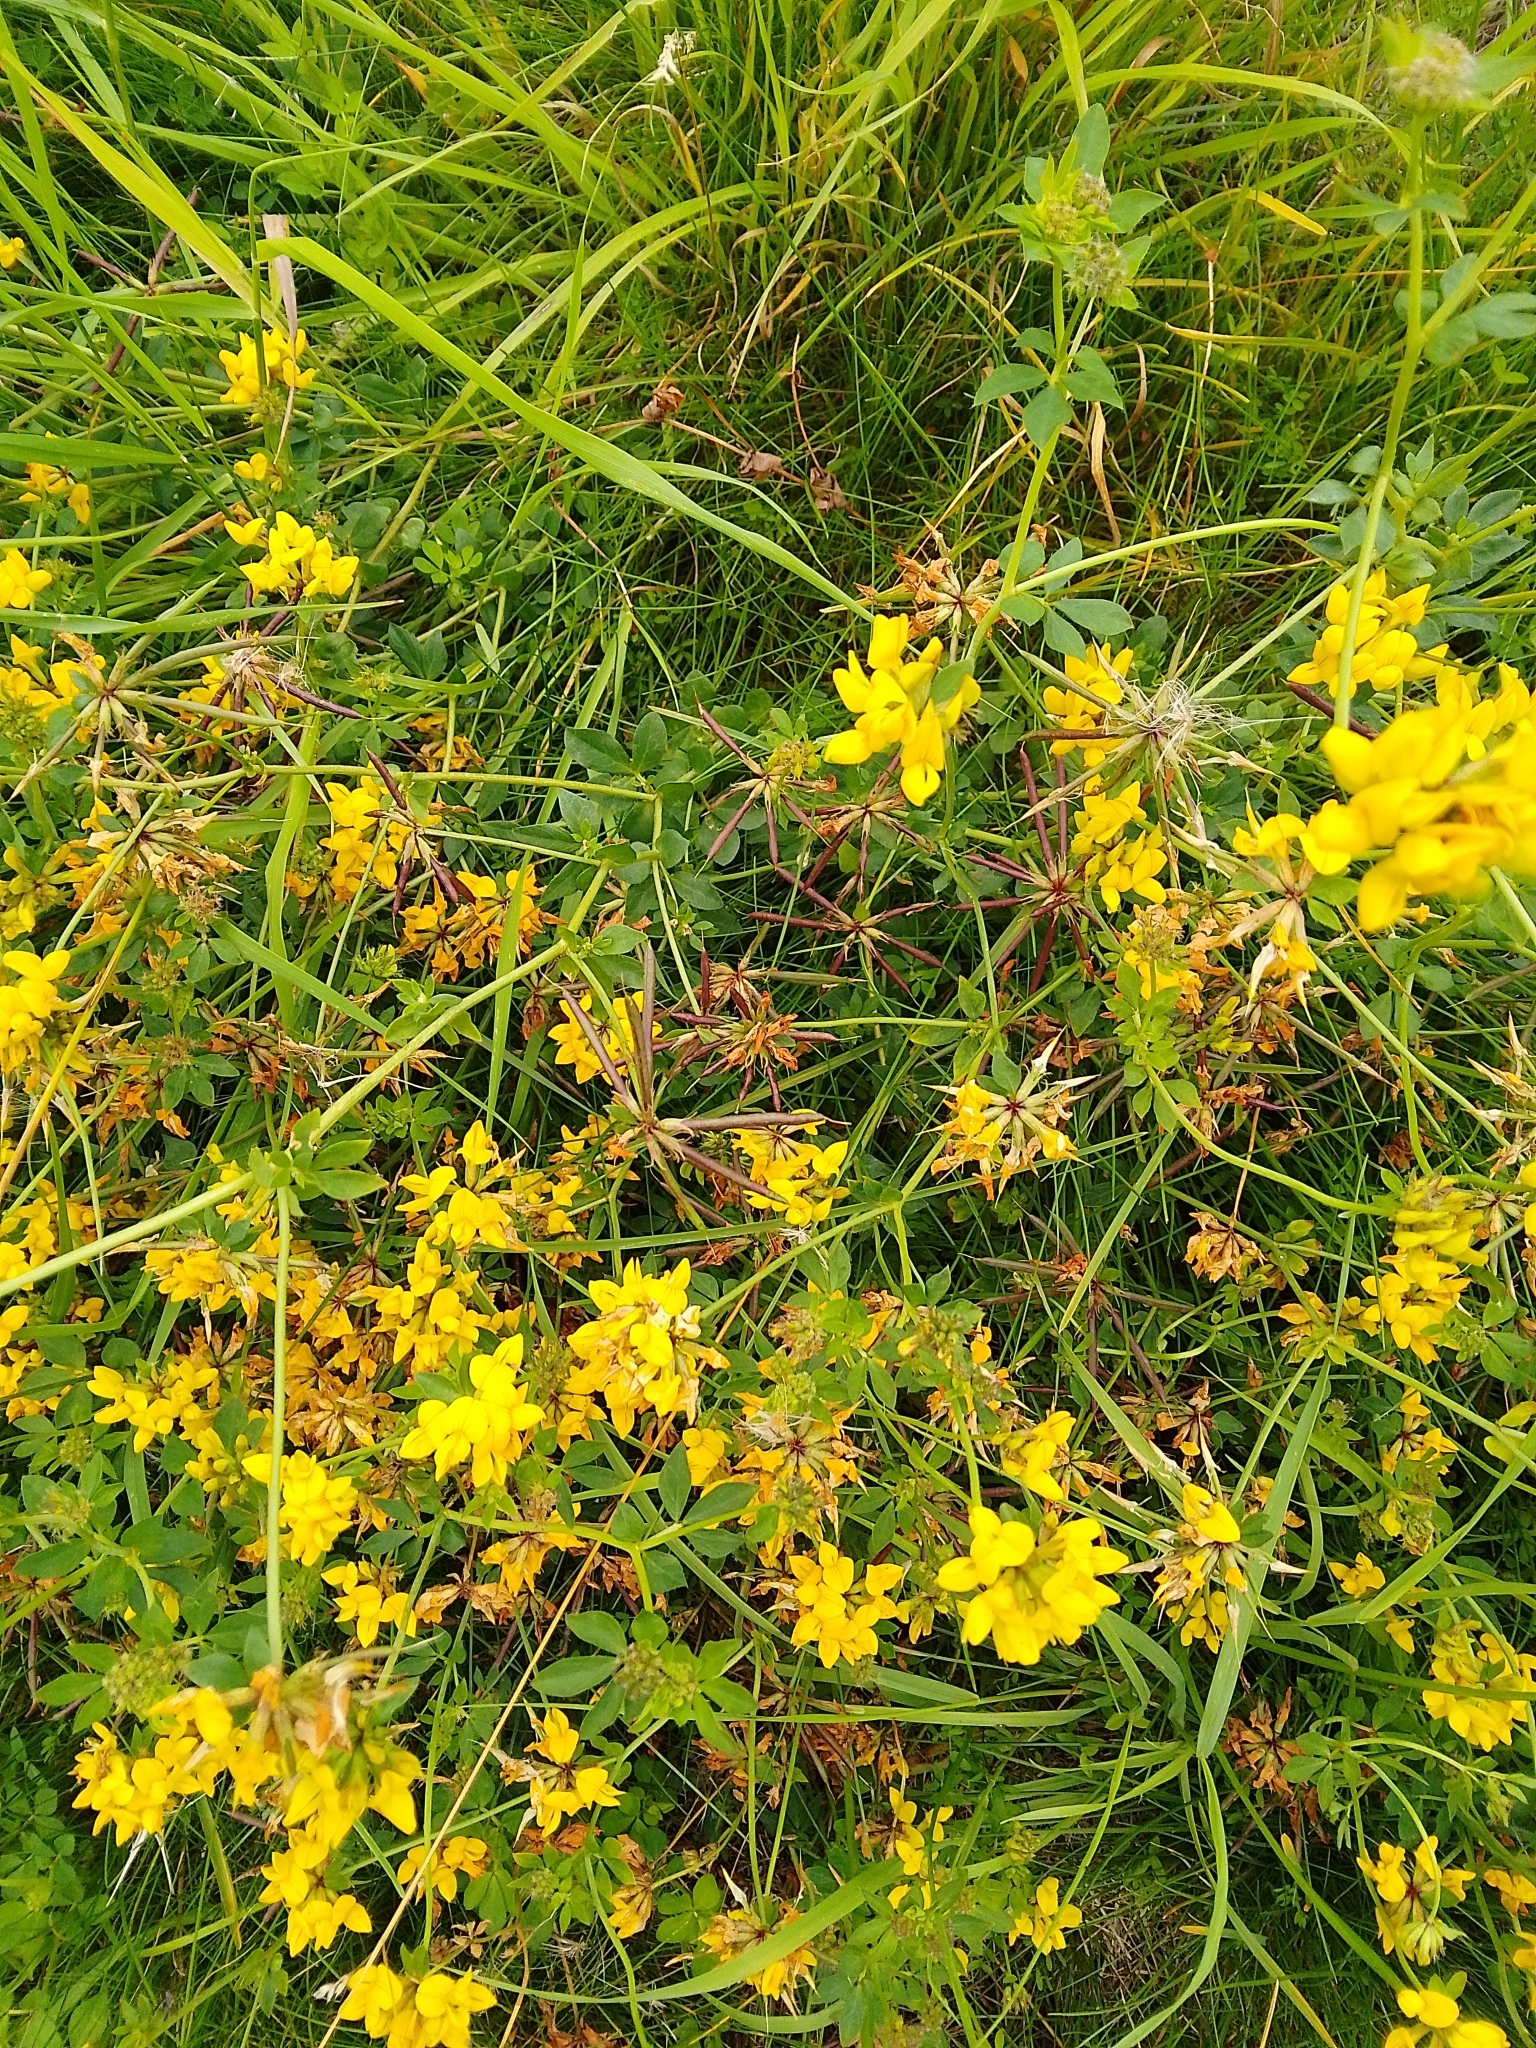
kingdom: Plantae
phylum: Tracheophyta
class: Magnoliopsida
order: Fabales
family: Fabaceae
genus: Lotus
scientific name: Lotus pedunculatus
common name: Greater birdsfoot-trefoil
